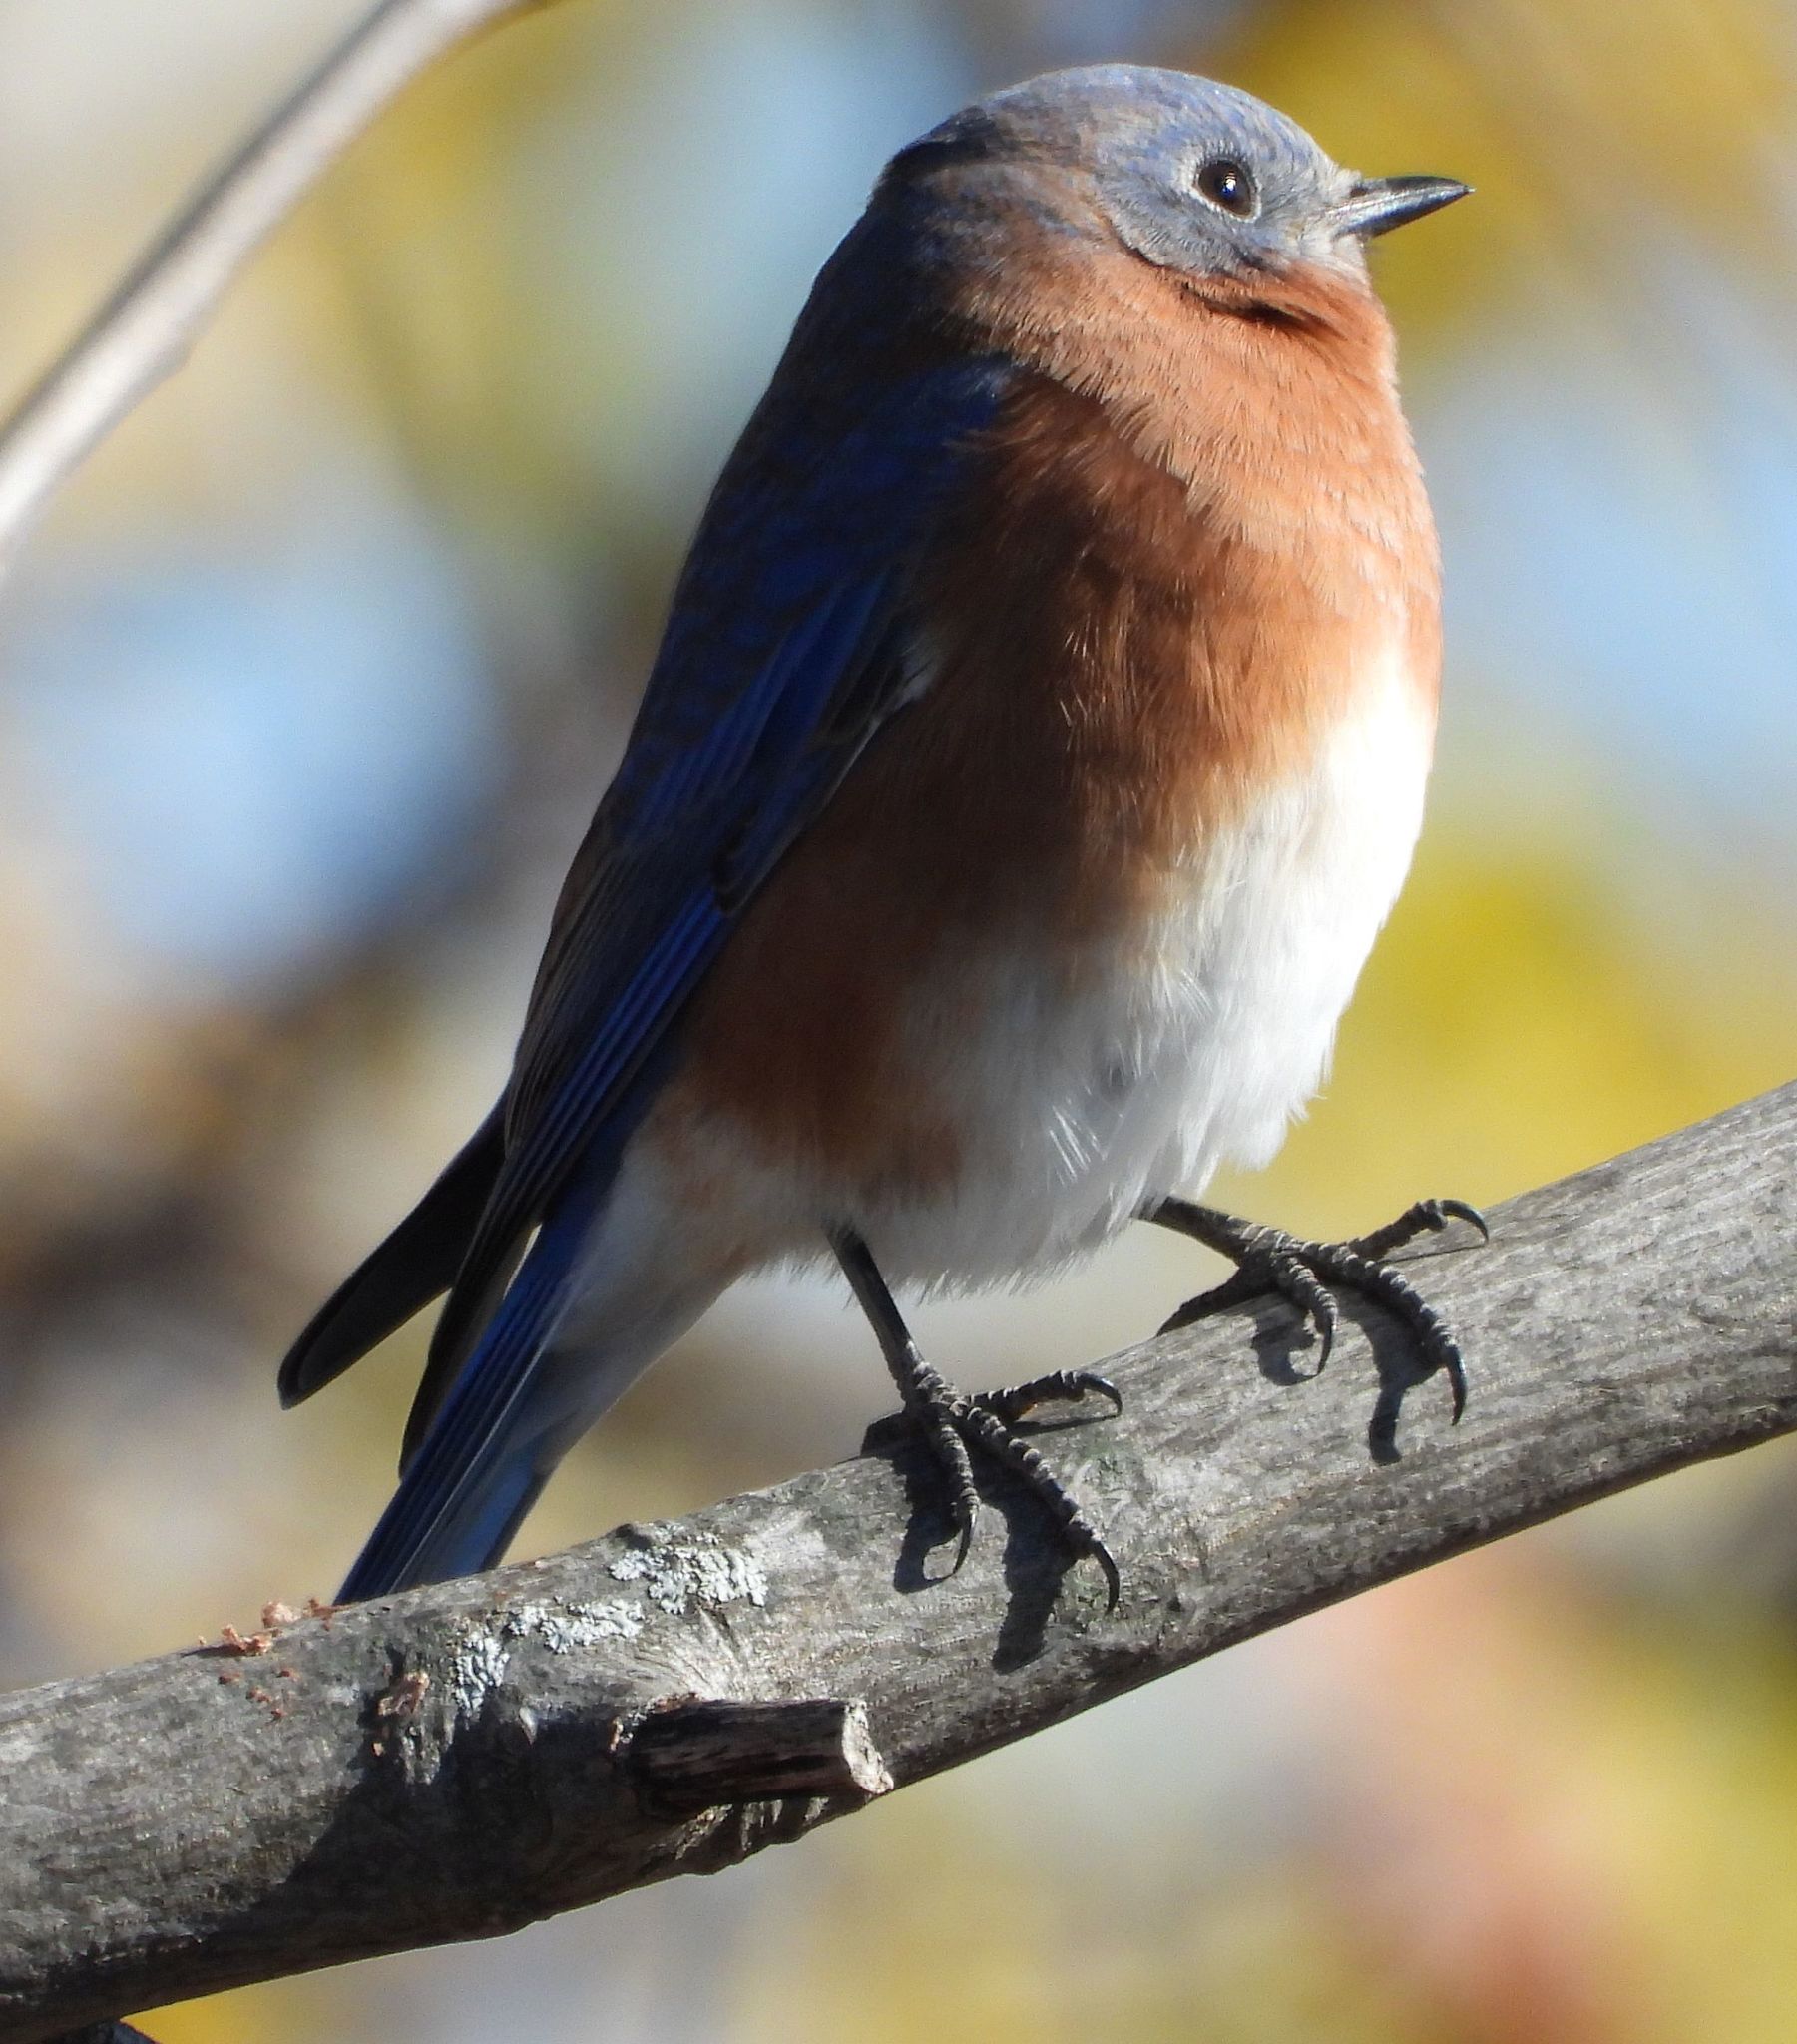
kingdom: Animalia
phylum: Chordata
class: Aves
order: Passeriformes
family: Turdidae
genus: Sialia
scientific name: Sialia sialis
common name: Eastern bluebird
